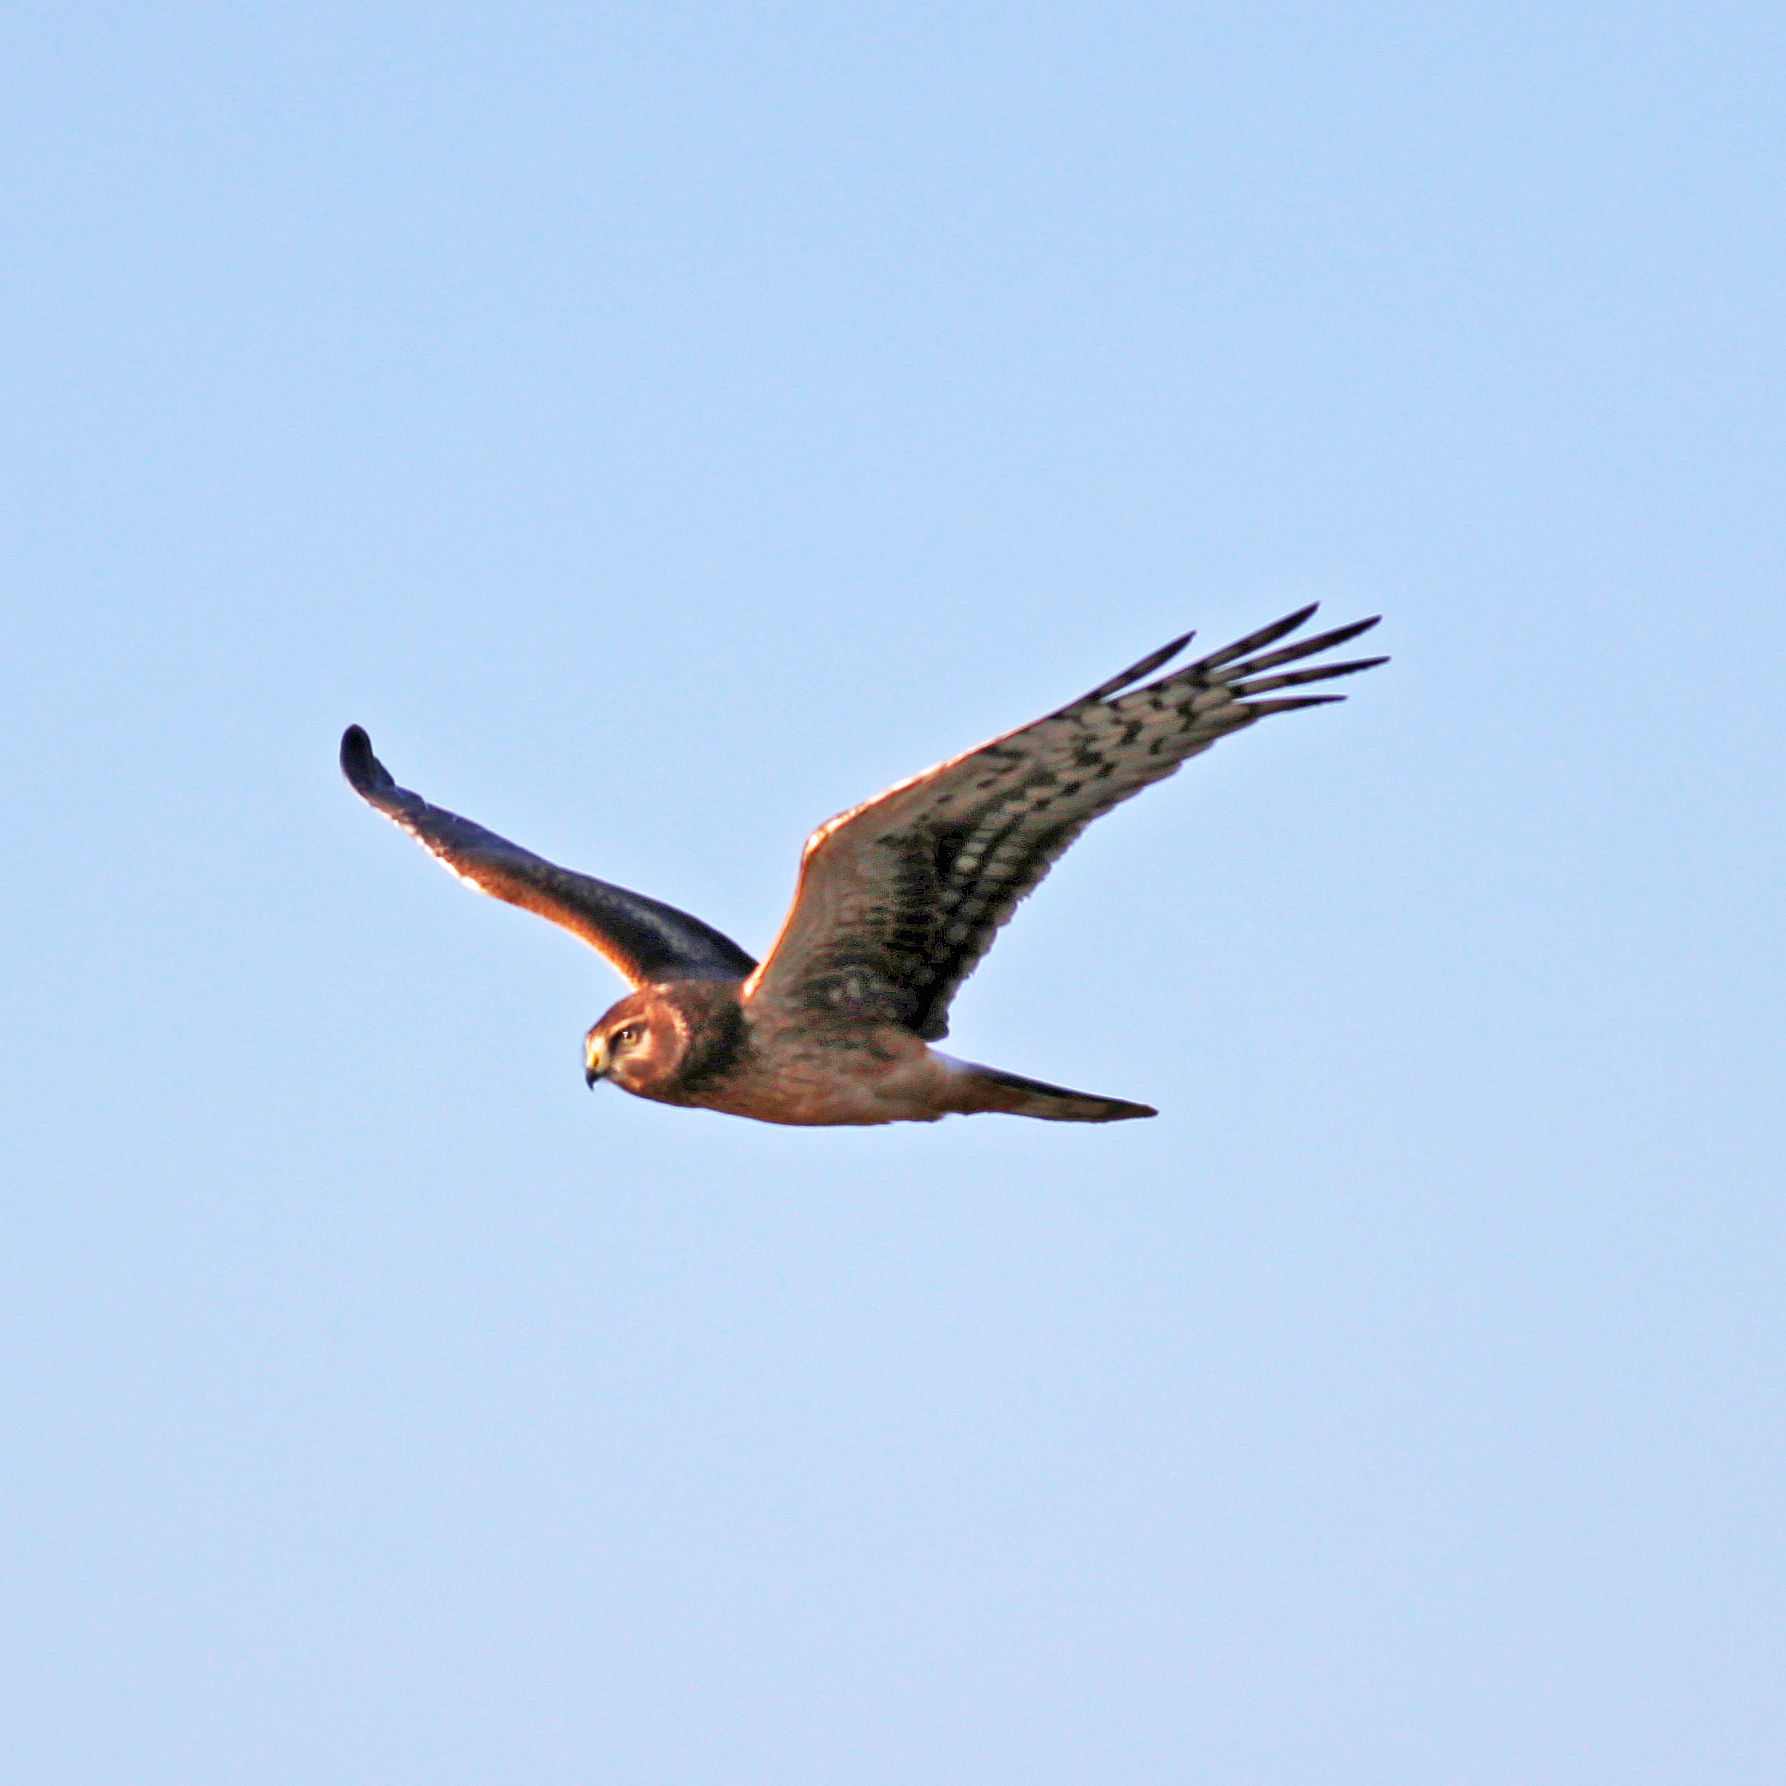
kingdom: Animalia
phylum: Chordata
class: Aves
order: Accipitriformes
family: Accipitridae
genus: Circus
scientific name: Circus cyaneus
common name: Hen harrier
